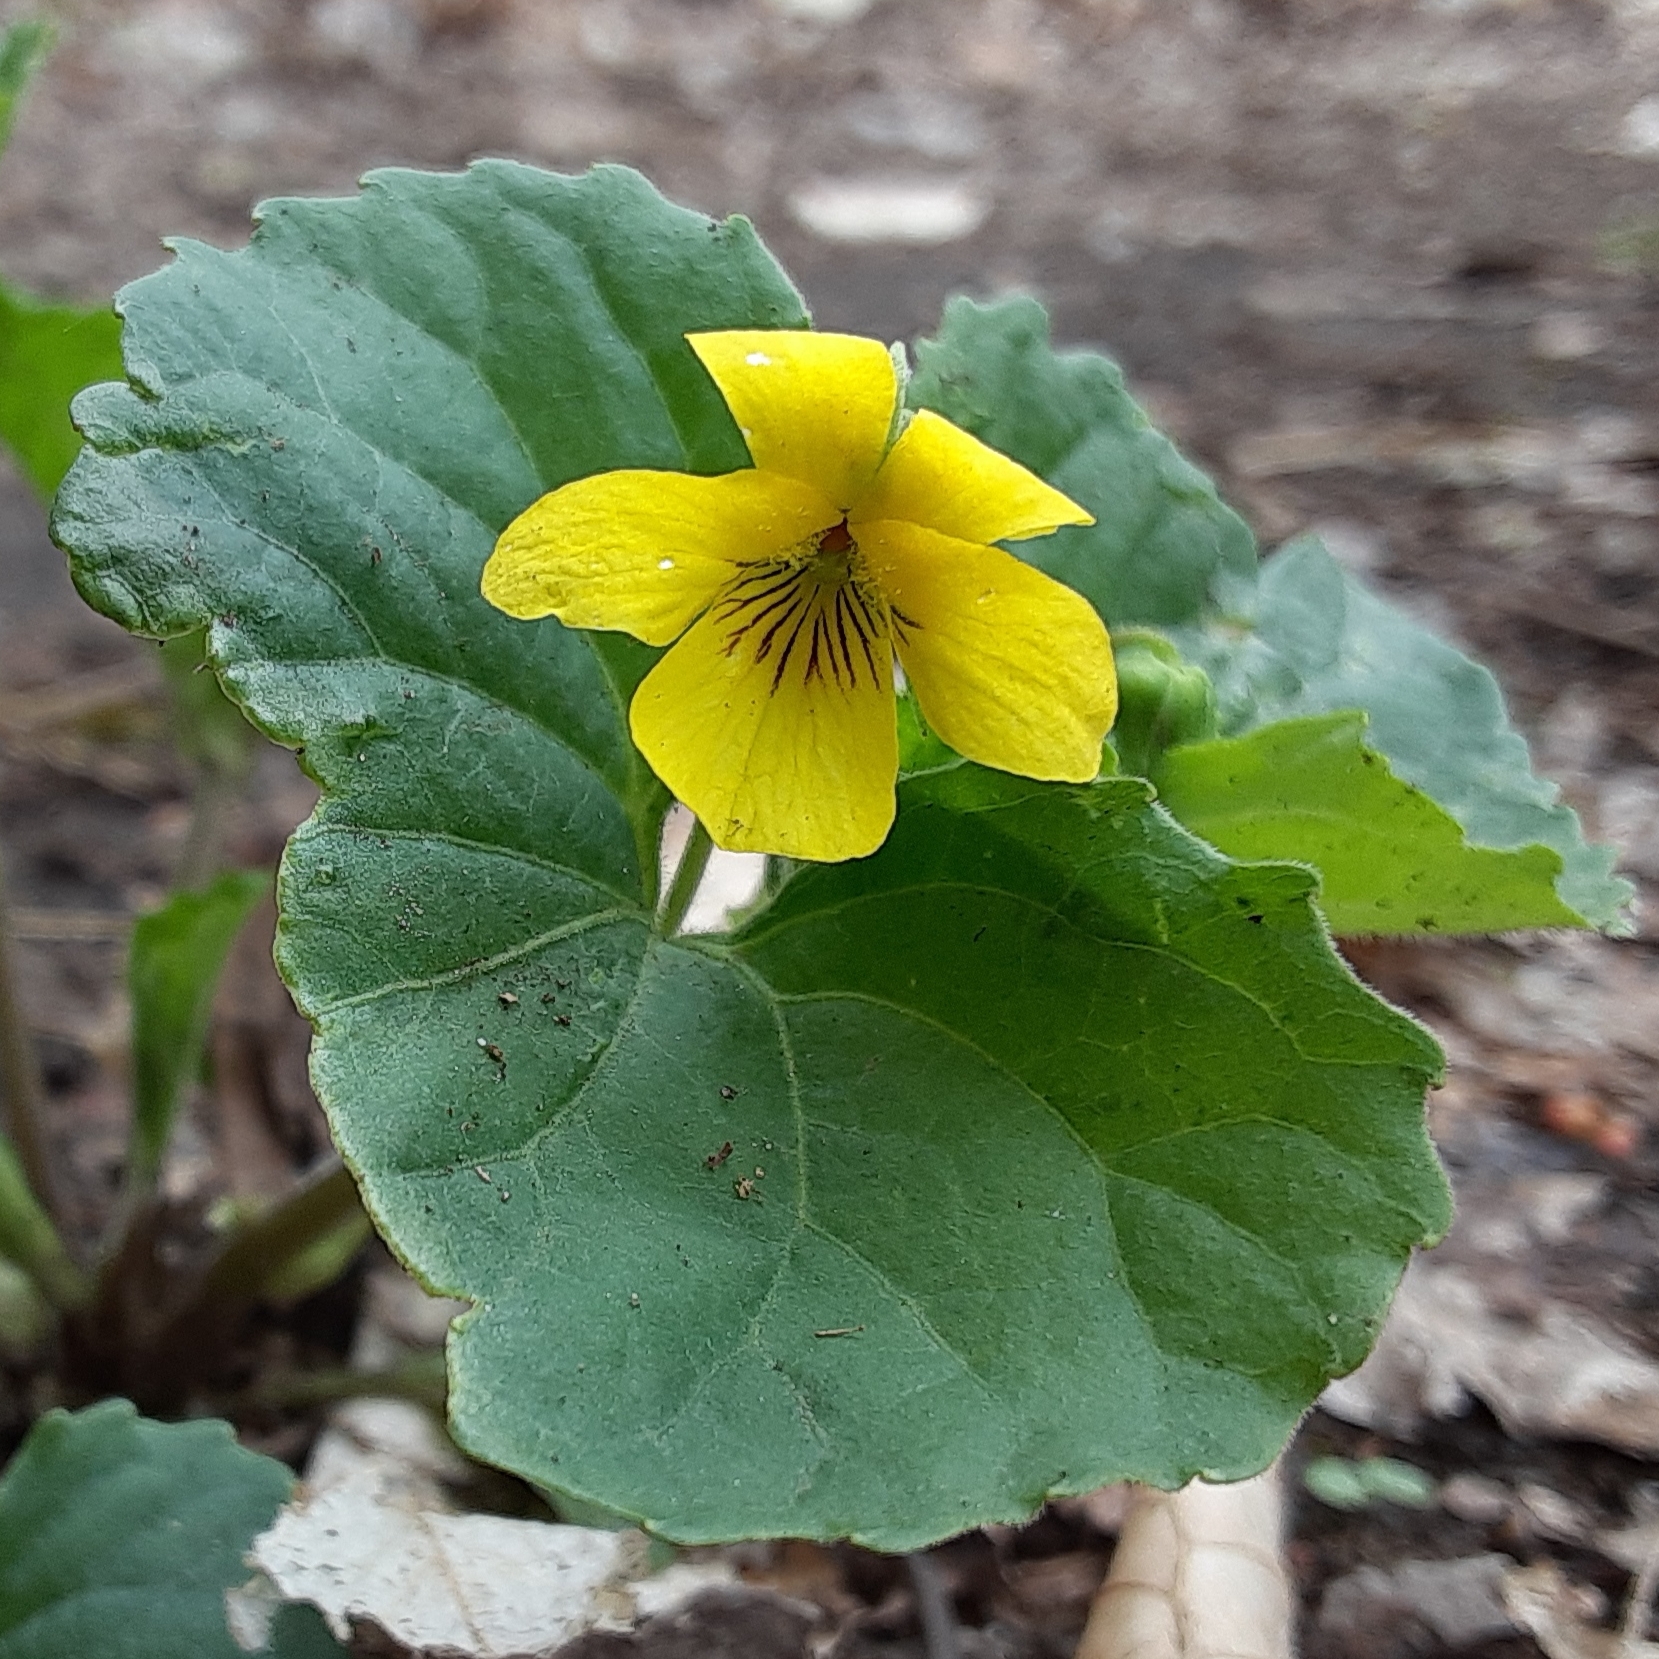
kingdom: Plantae
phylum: Tracheophyta
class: Magnoliopsida
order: Malpighiales
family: Violaceae
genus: Viola
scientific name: Viola eriocarpa
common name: Smooth yellow violet
